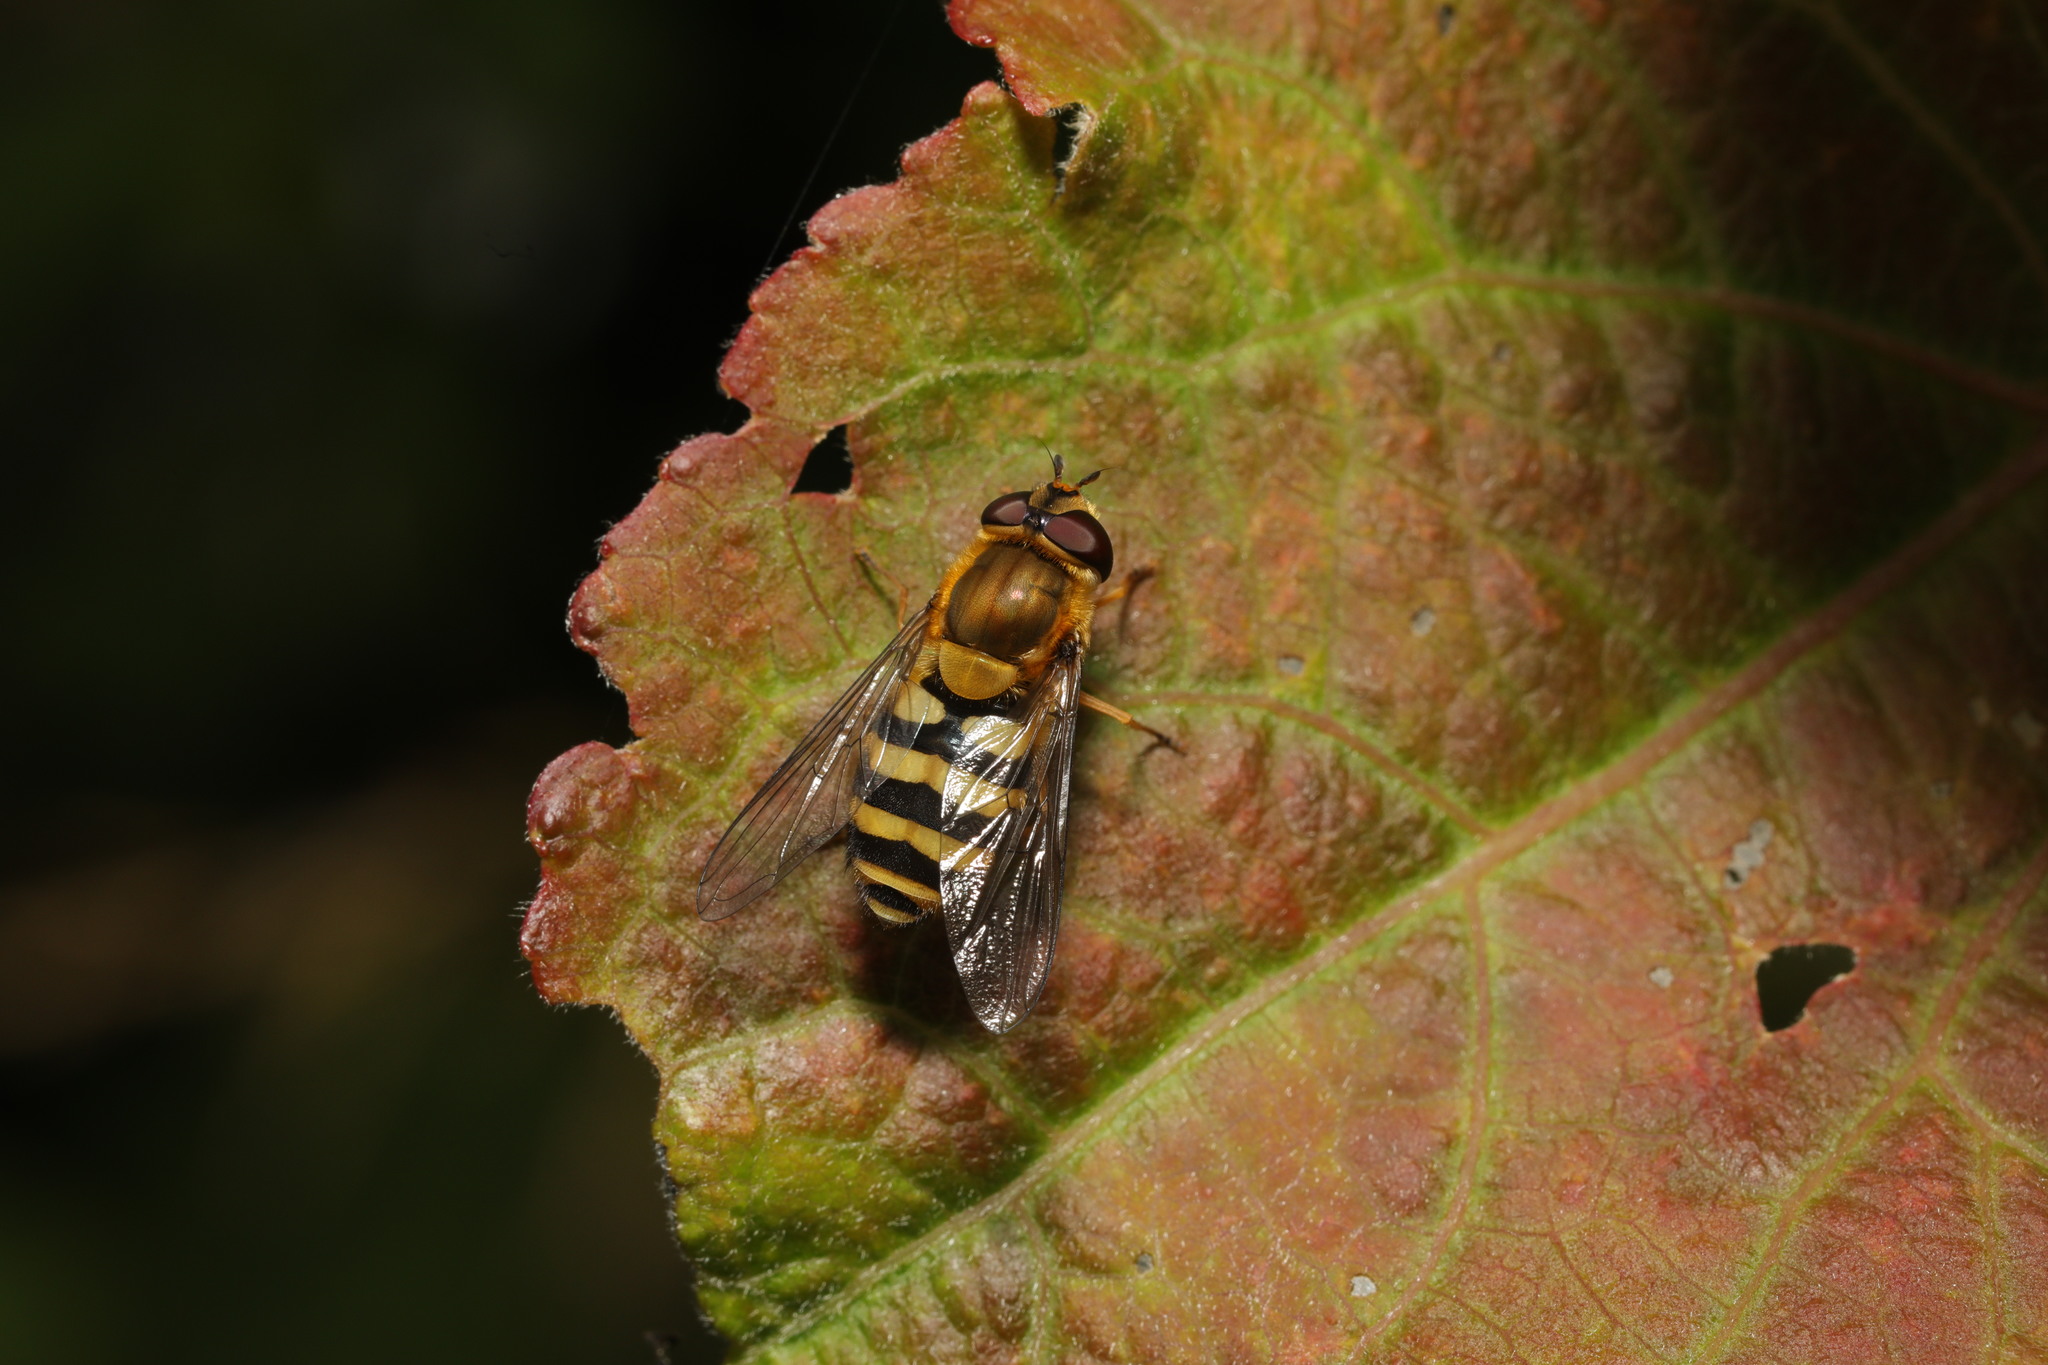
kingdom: Animalia
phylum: Arthropoda
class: Insecta
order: Diptera
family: Syrphidae
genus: Syrphus
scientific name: Syrphus
